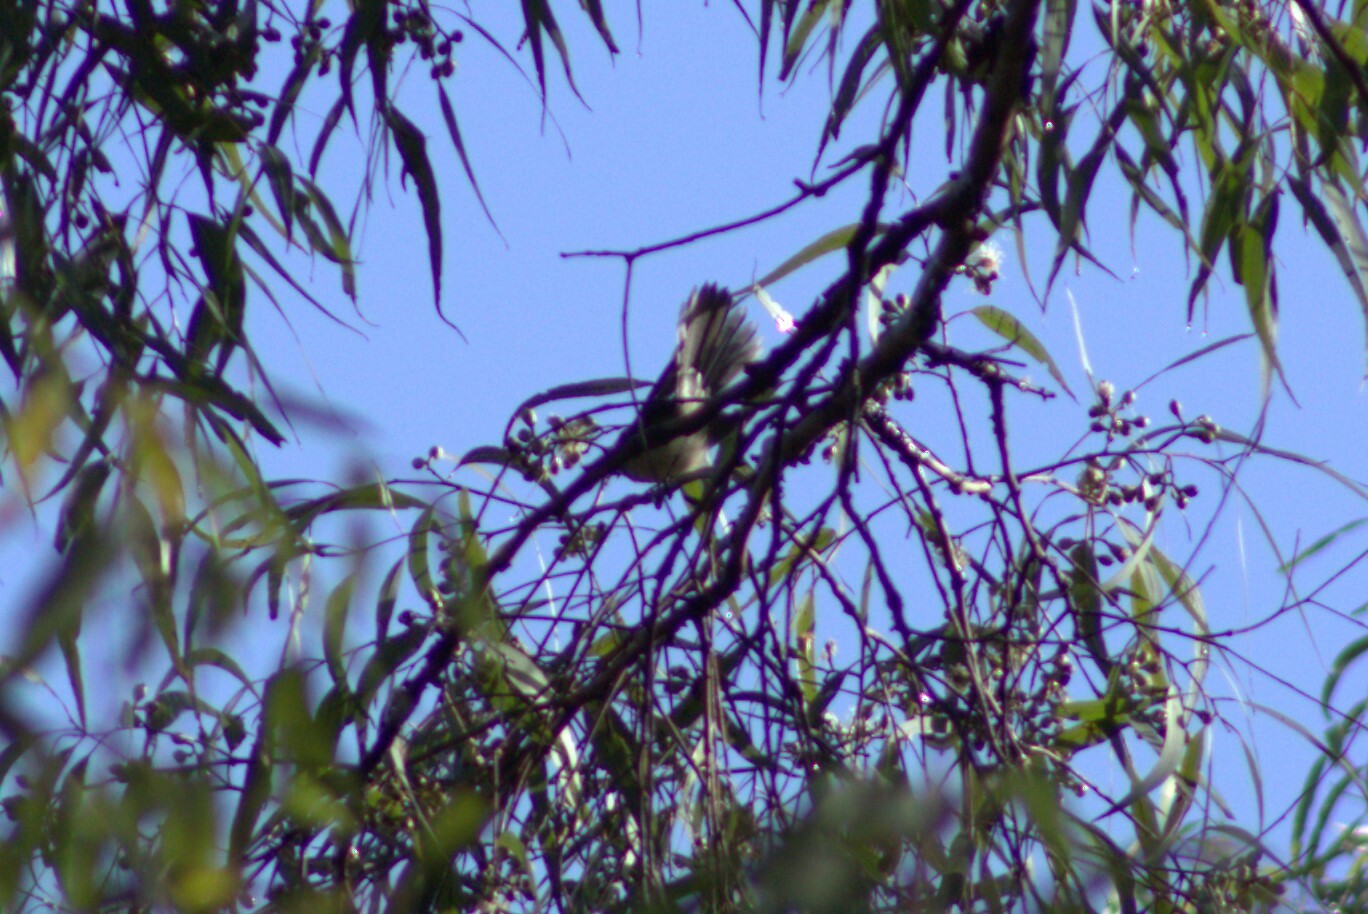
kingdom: Animalia
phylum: Chordata
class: Aves
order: Passeriformes
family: Rhipiduridae
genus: Rhipidura
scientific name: Rhipidura albiscapa
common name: Grey fantail
